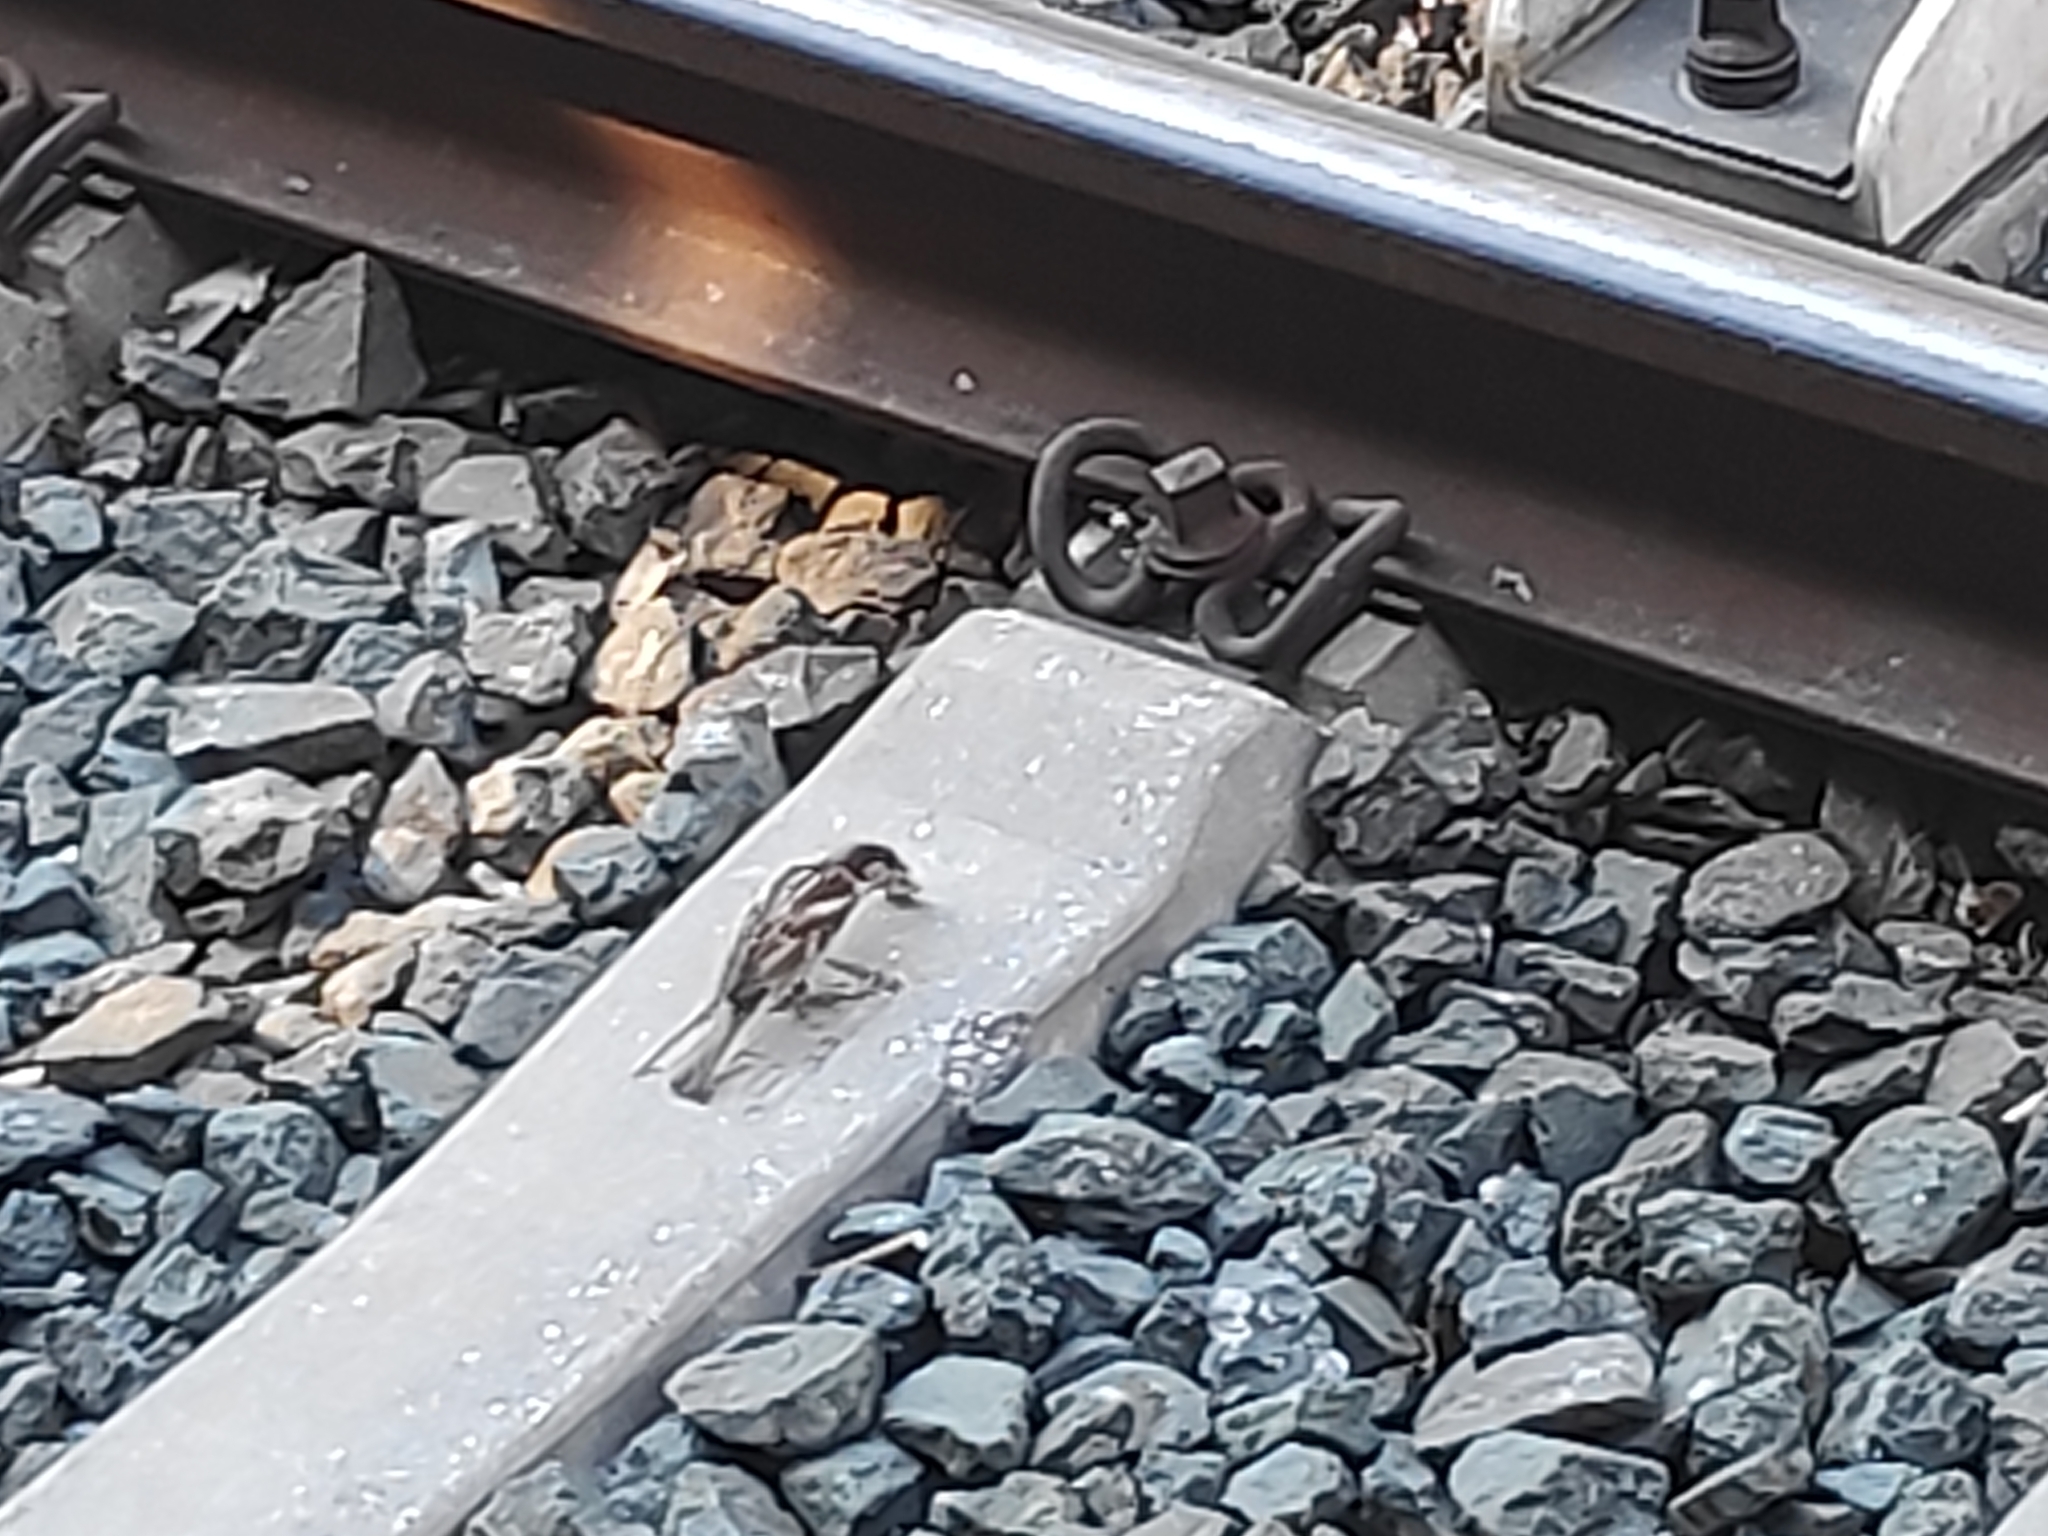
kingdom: Animalia
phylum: Chordata
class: Aves
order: Passeriformes
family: Passeridae
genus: Passer
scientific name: Passer domesticus
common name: House sparrow
